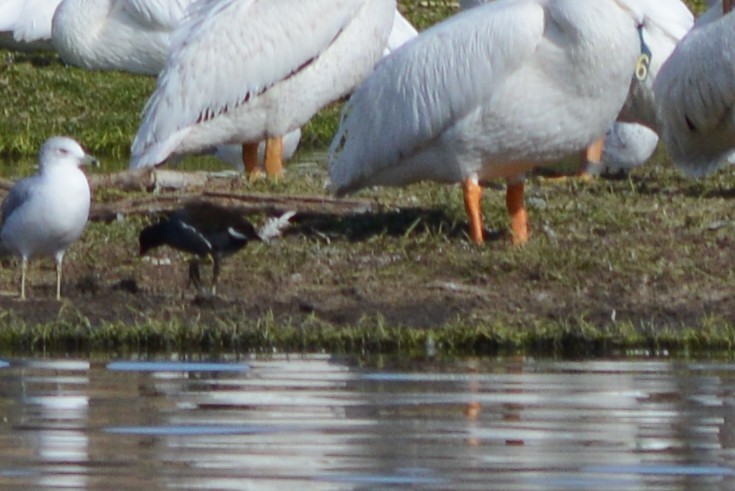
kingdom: Animalia
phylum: Chordata
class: Aves
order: Gruiformes
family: Rallidae
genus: Gallinula
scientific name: Gallinula chloropus
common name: Common moorhen
